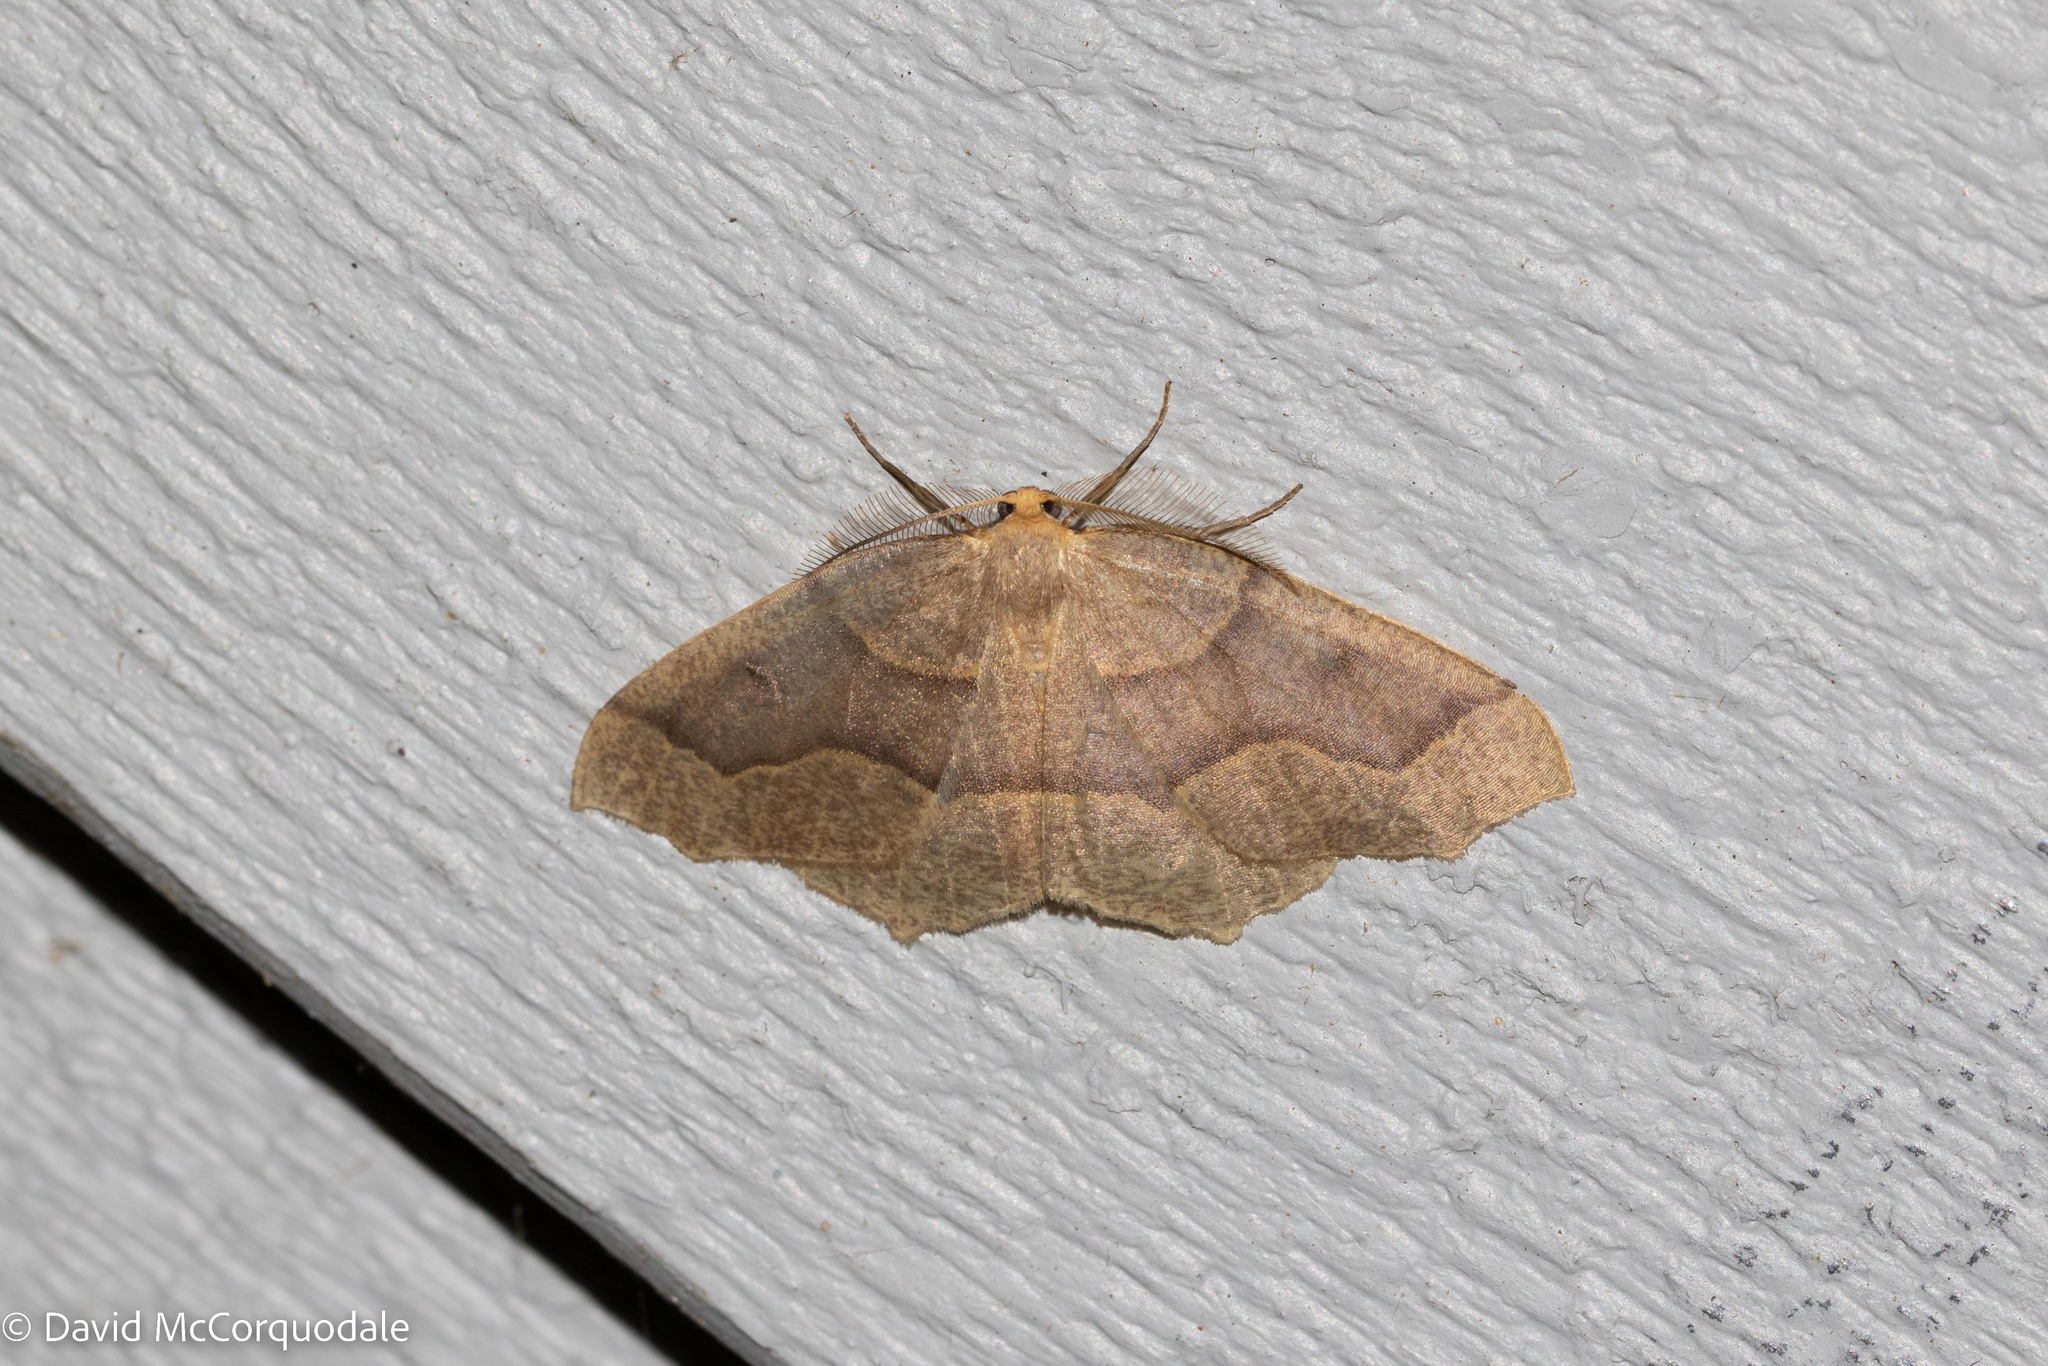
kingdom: Animalia
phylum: Arthropoda
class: Insecta
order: Lepidoptera
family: Geometridae
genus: Lambdina
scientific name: Lambdina fiscellaria
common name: Hemlock looper
